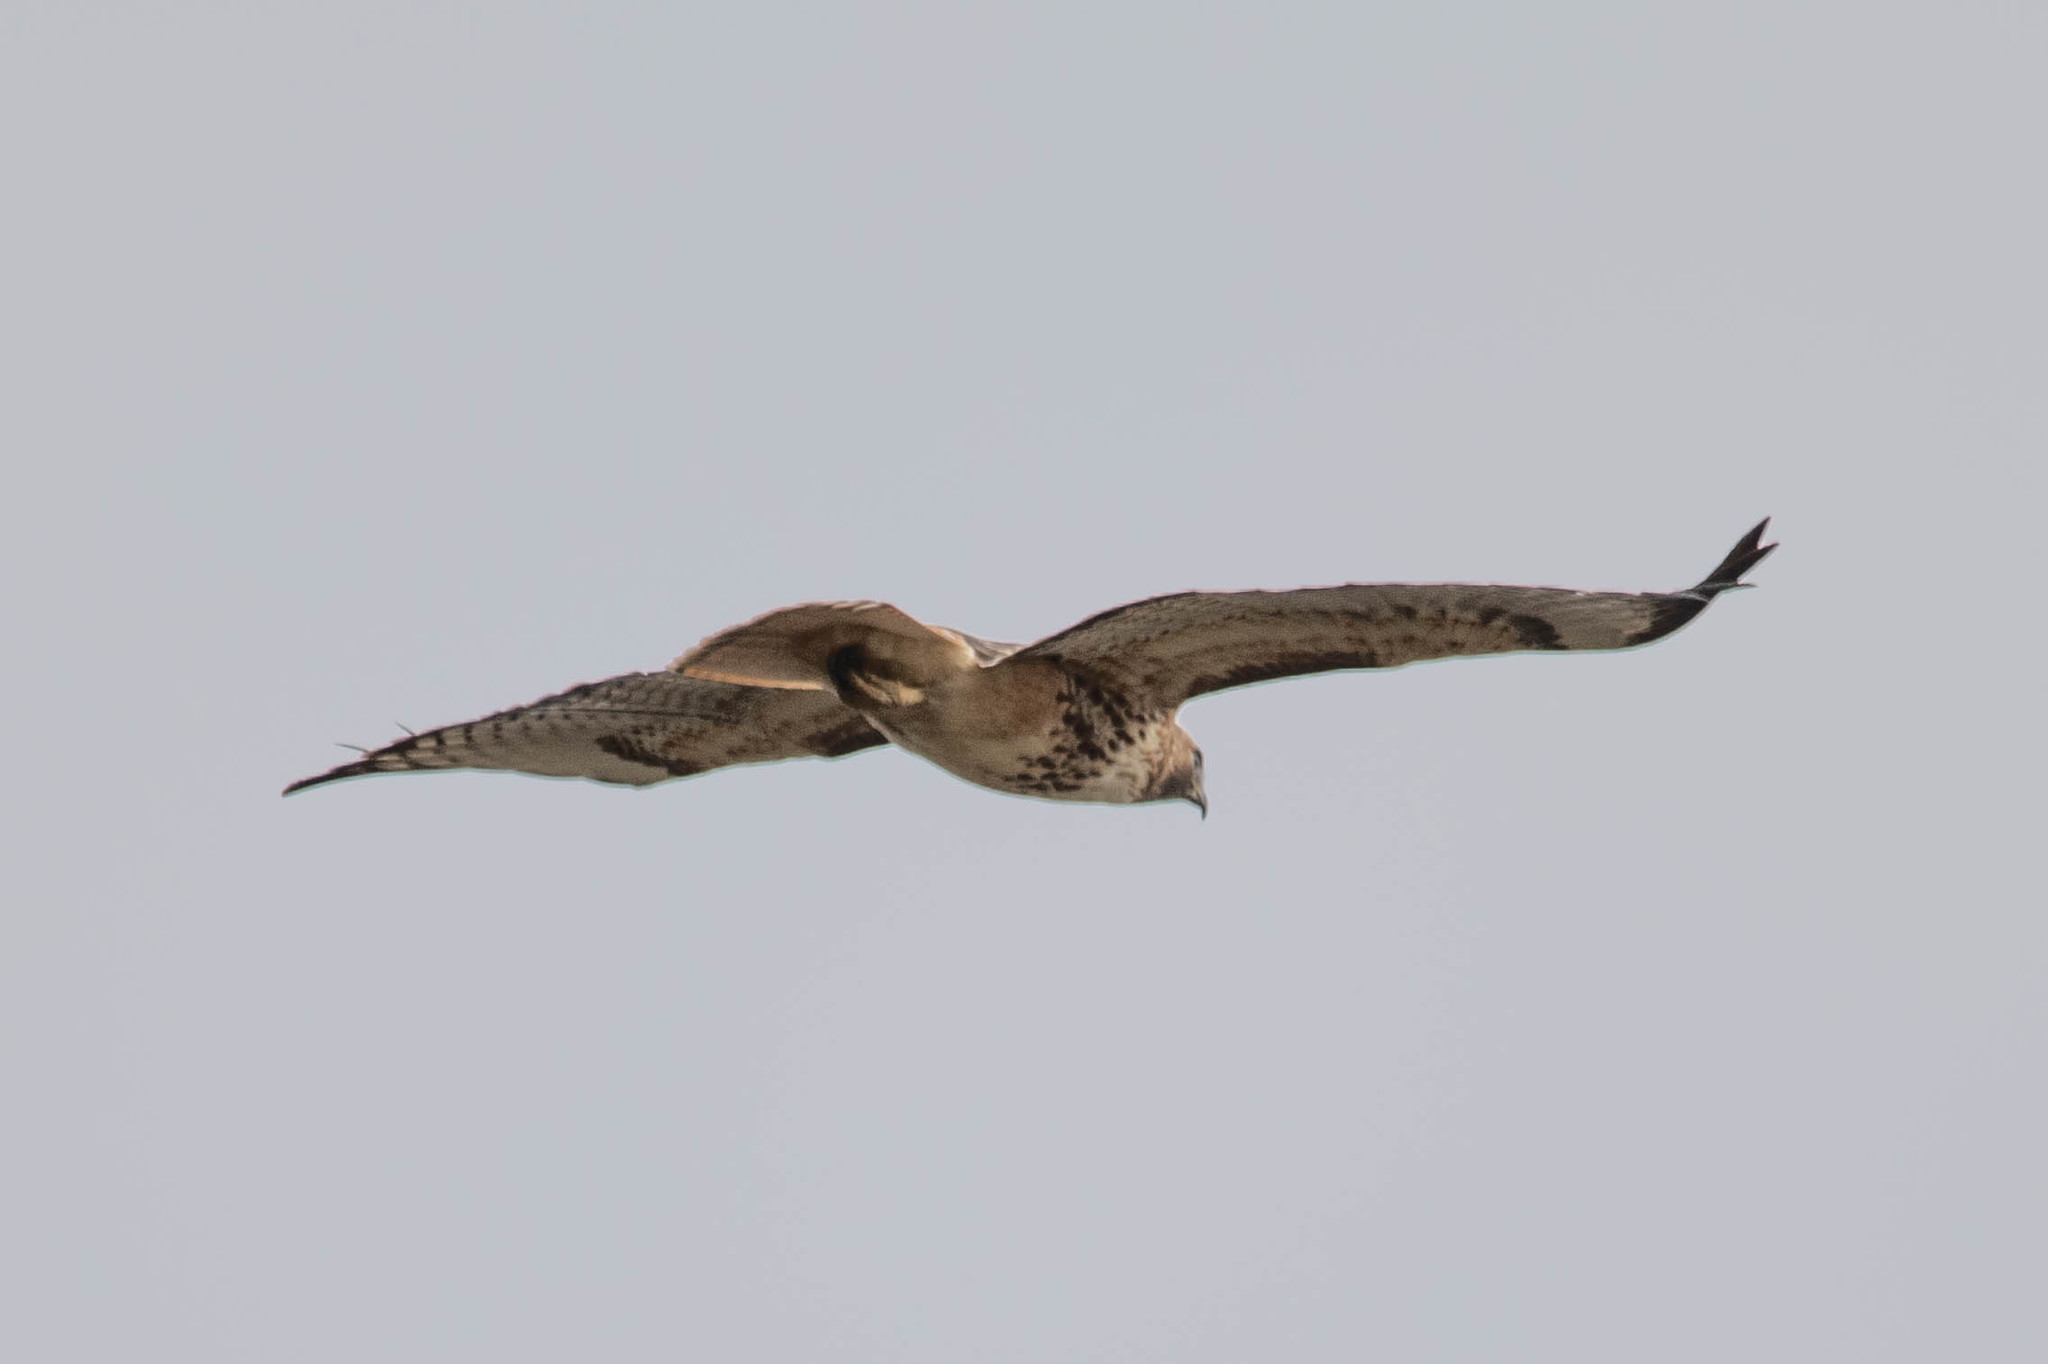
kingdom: Animalia
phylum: Chordata
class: Aves
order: Accipitriformes
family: Accipitridae
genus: Buteo
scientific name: Buteo jamaicensis
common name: Red-tailed hawk
